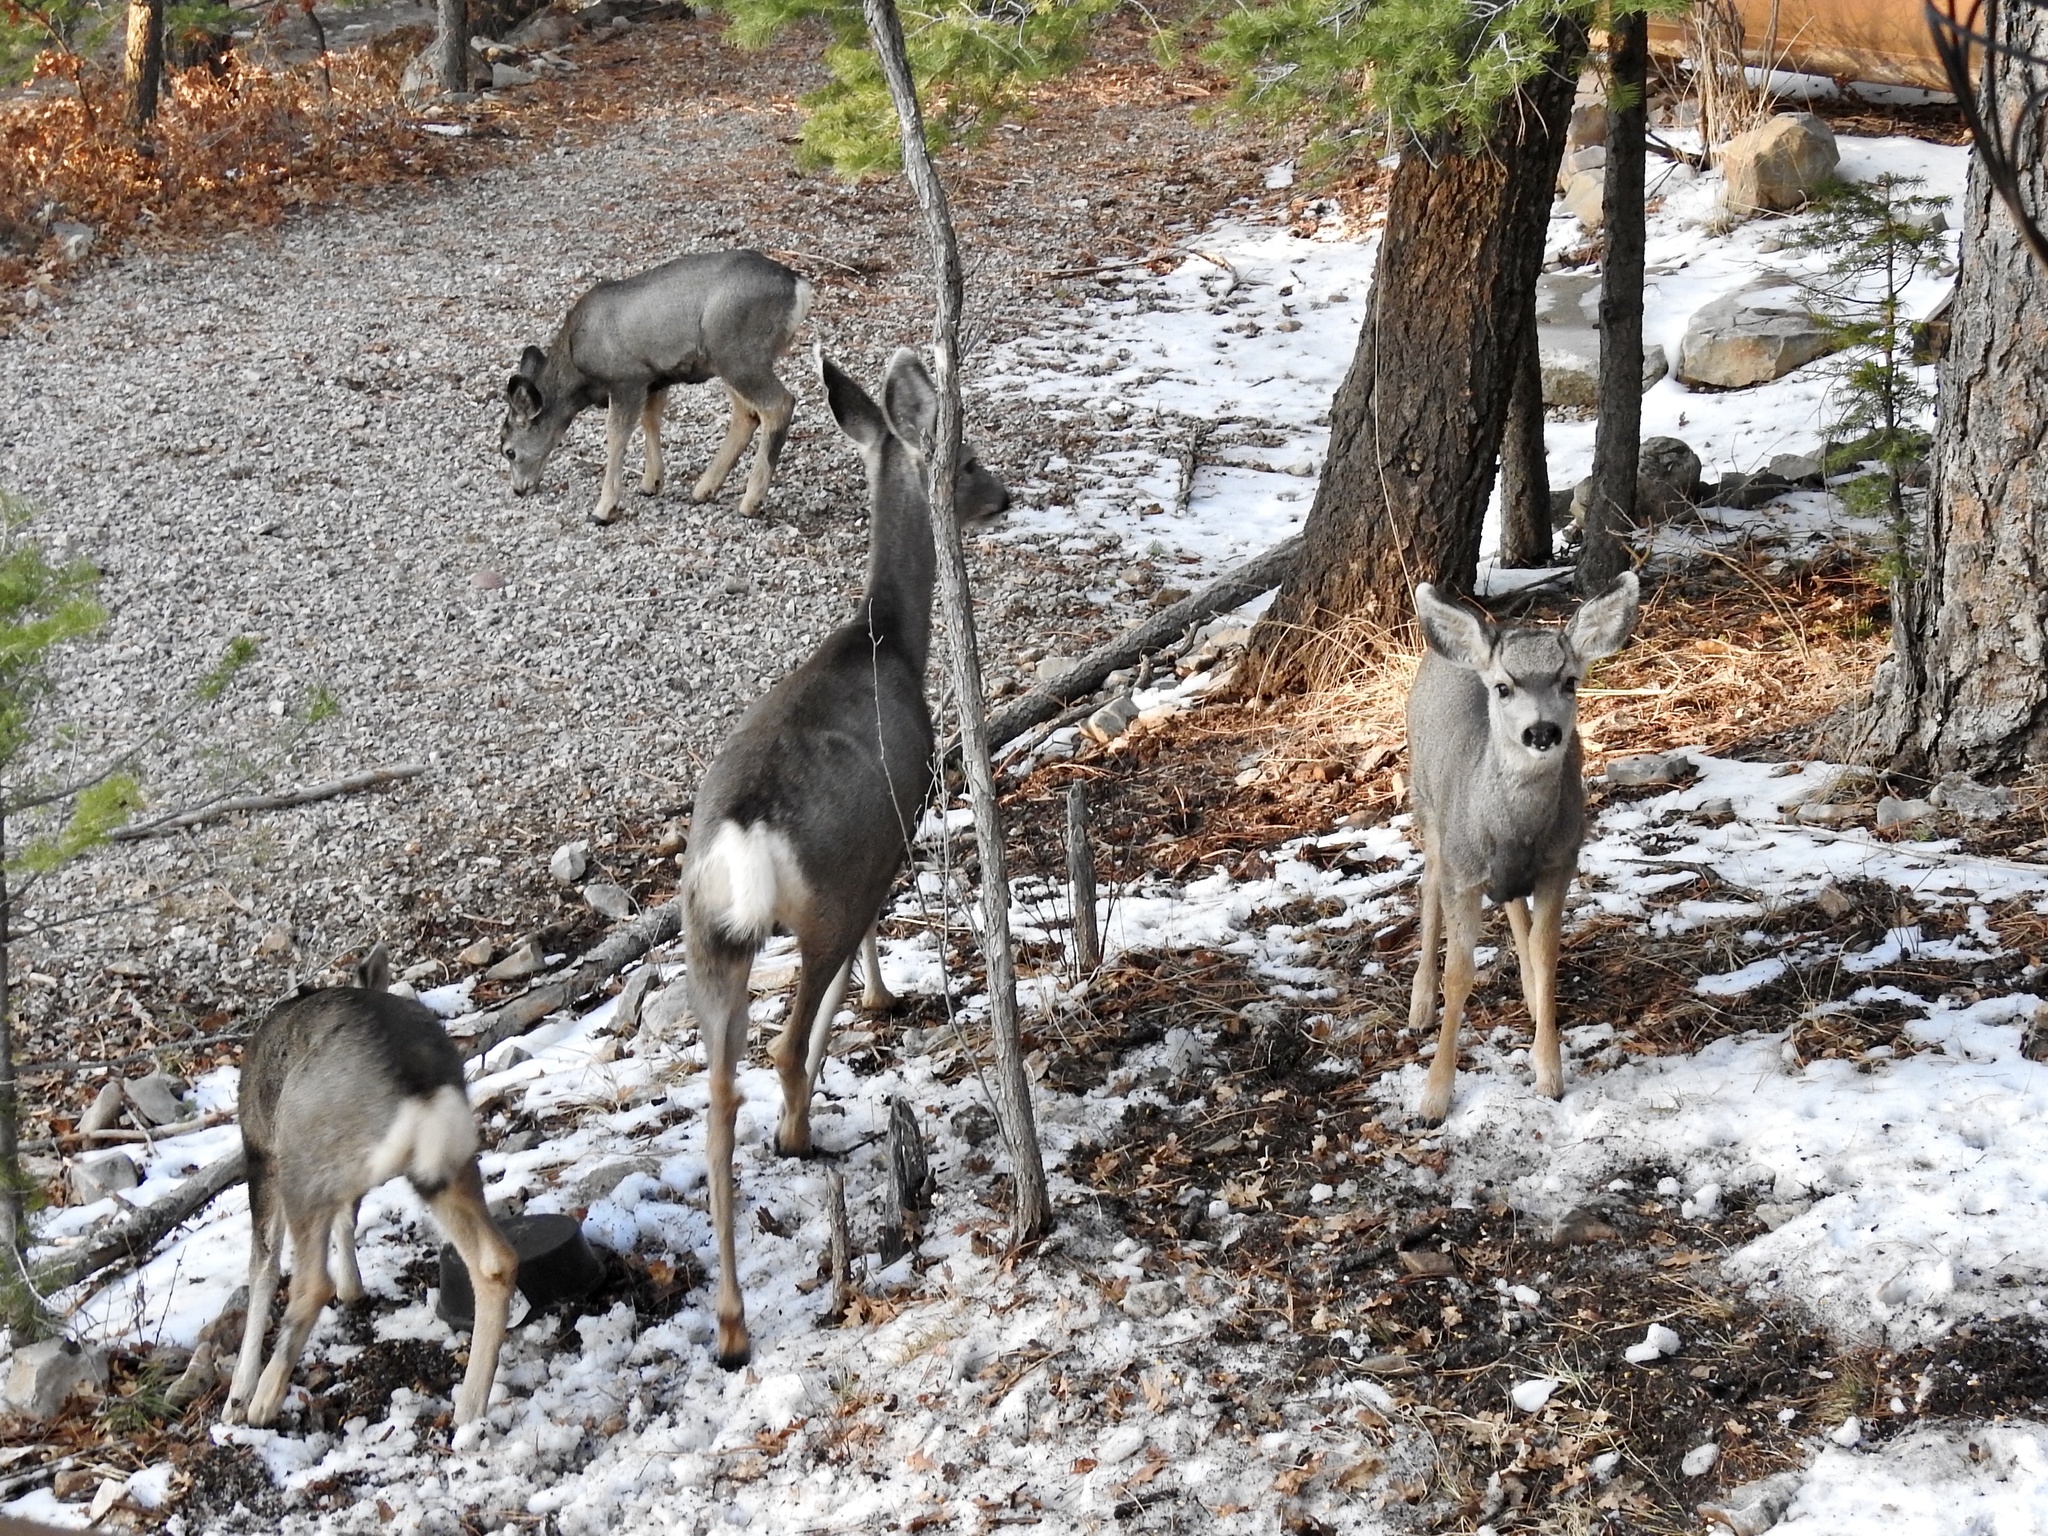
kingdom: Animalia
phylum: Chordata
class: Mammalia
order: Artiodactyla
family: Cervidae
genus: Odocoileus
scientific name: Odocoileus hemionus
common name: Mule deer
